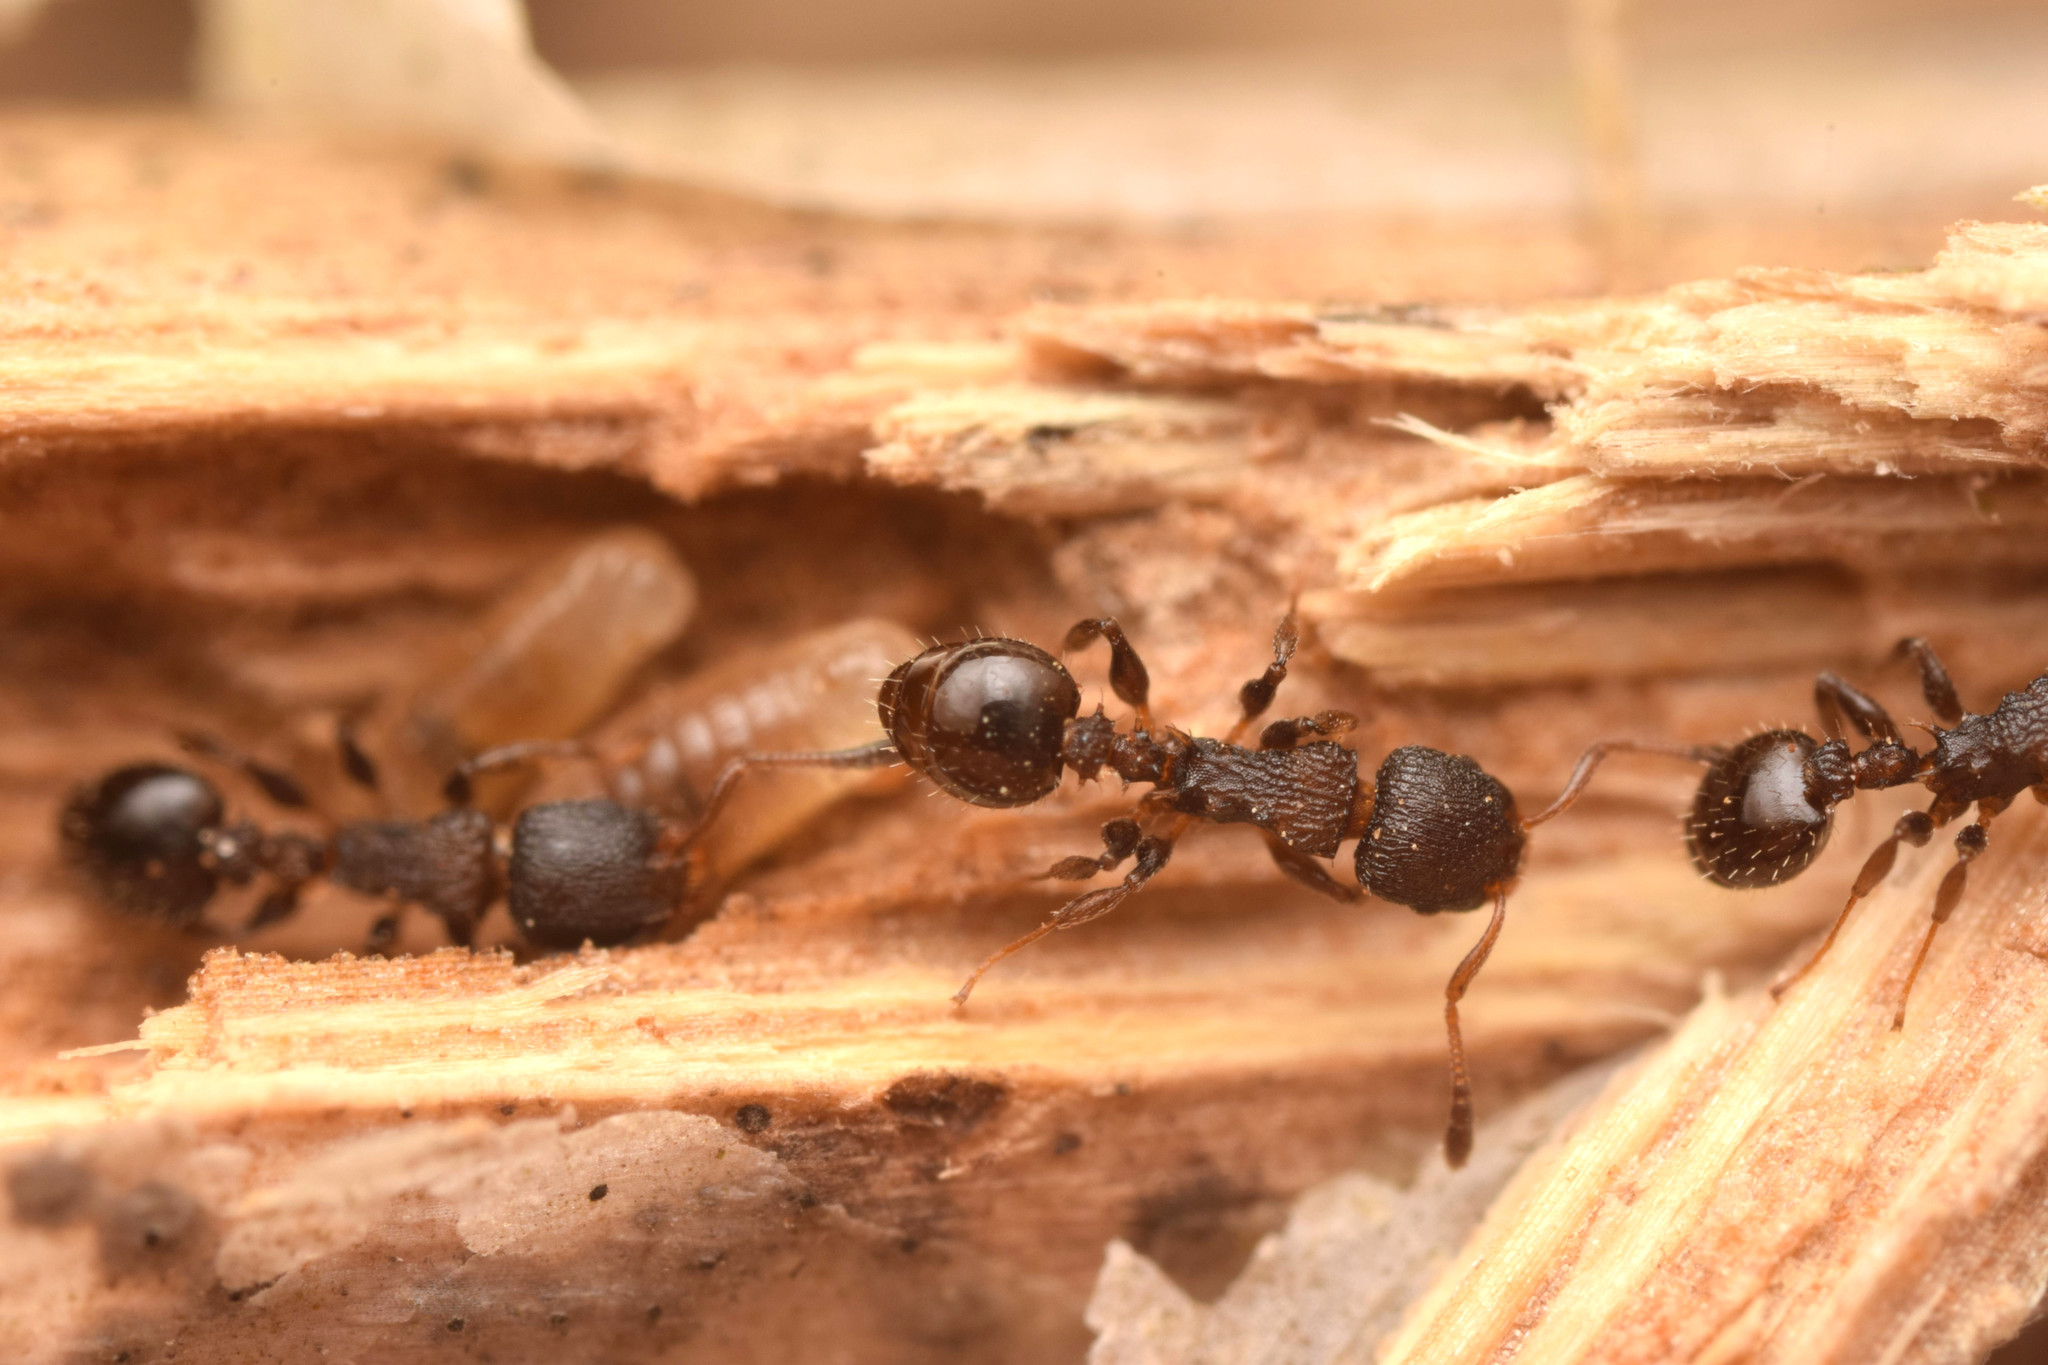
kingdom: Animalia
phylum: Arthropoda
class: Insecta
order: Hymenoptera
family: Formicidae
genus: Nesomyrmex
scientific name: Nesomyrmex spininodis
